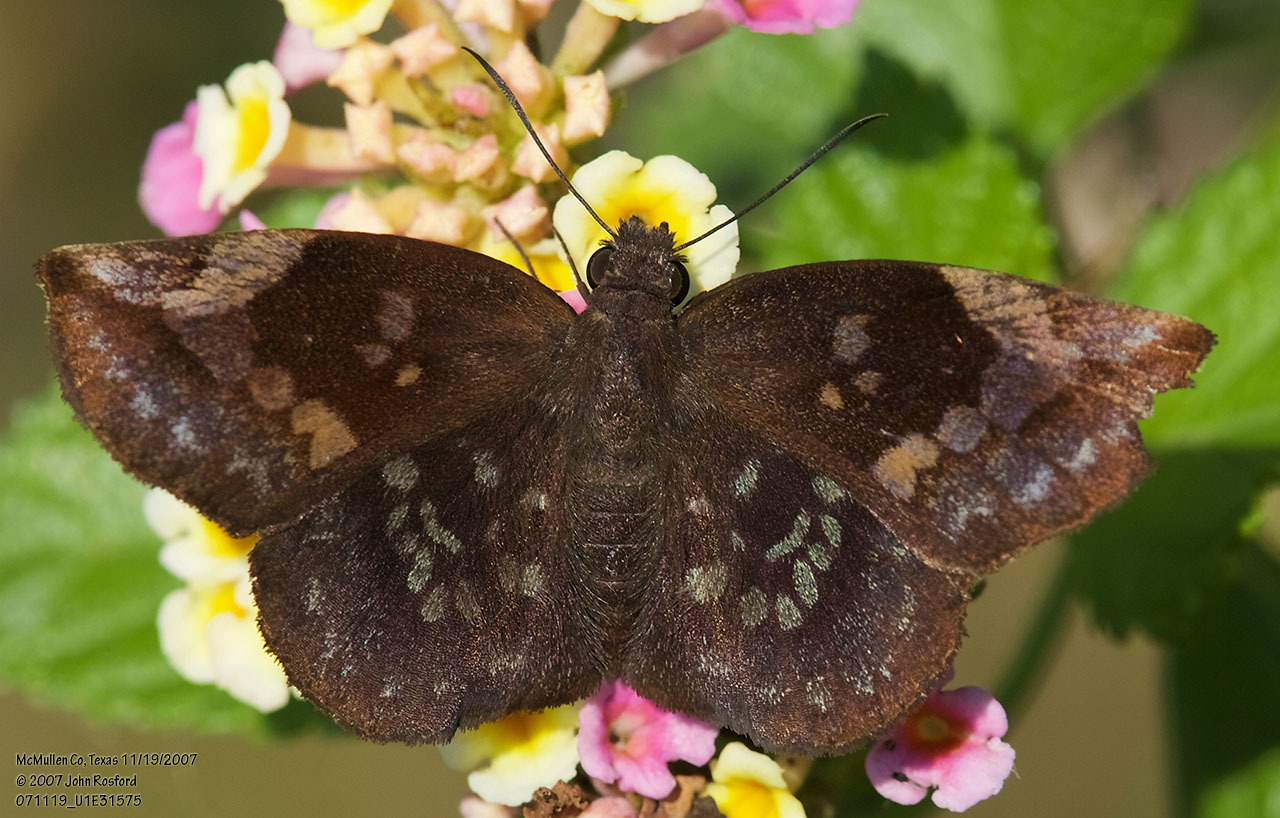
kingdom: Animalia
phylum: Arthropoda
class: Insecta
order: Lepidoptera
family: Hesperiidae
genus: Achlyodes
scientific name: Achlyodes thraso
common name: Sickle-winged skipper
